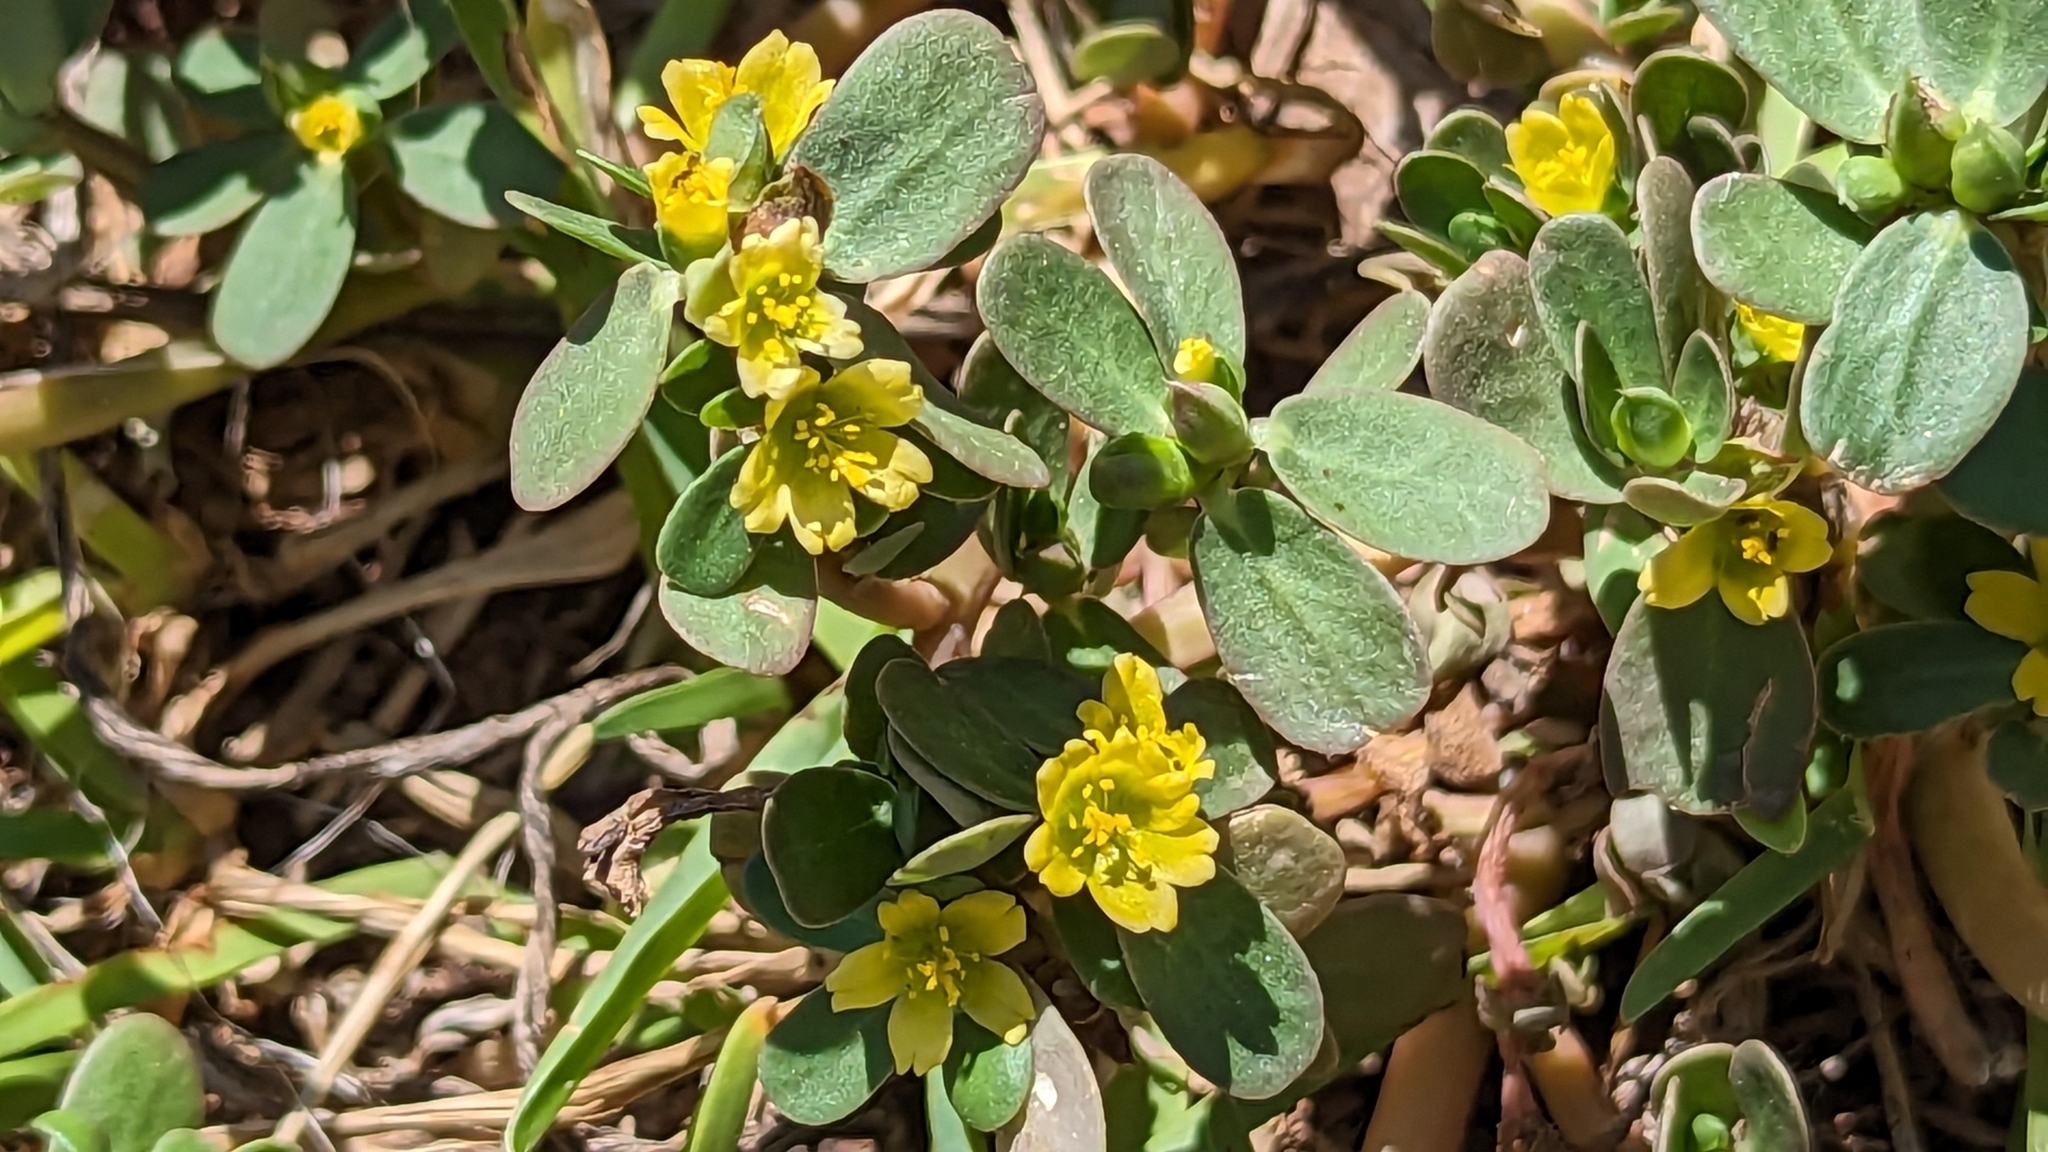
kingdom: Plantae
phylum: Tracheophyta
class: Magnoliopsida
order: Caryophyllales
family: Portulacaceae
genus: Portulaca
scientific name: Portulaca oleracea
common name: Common purslane
